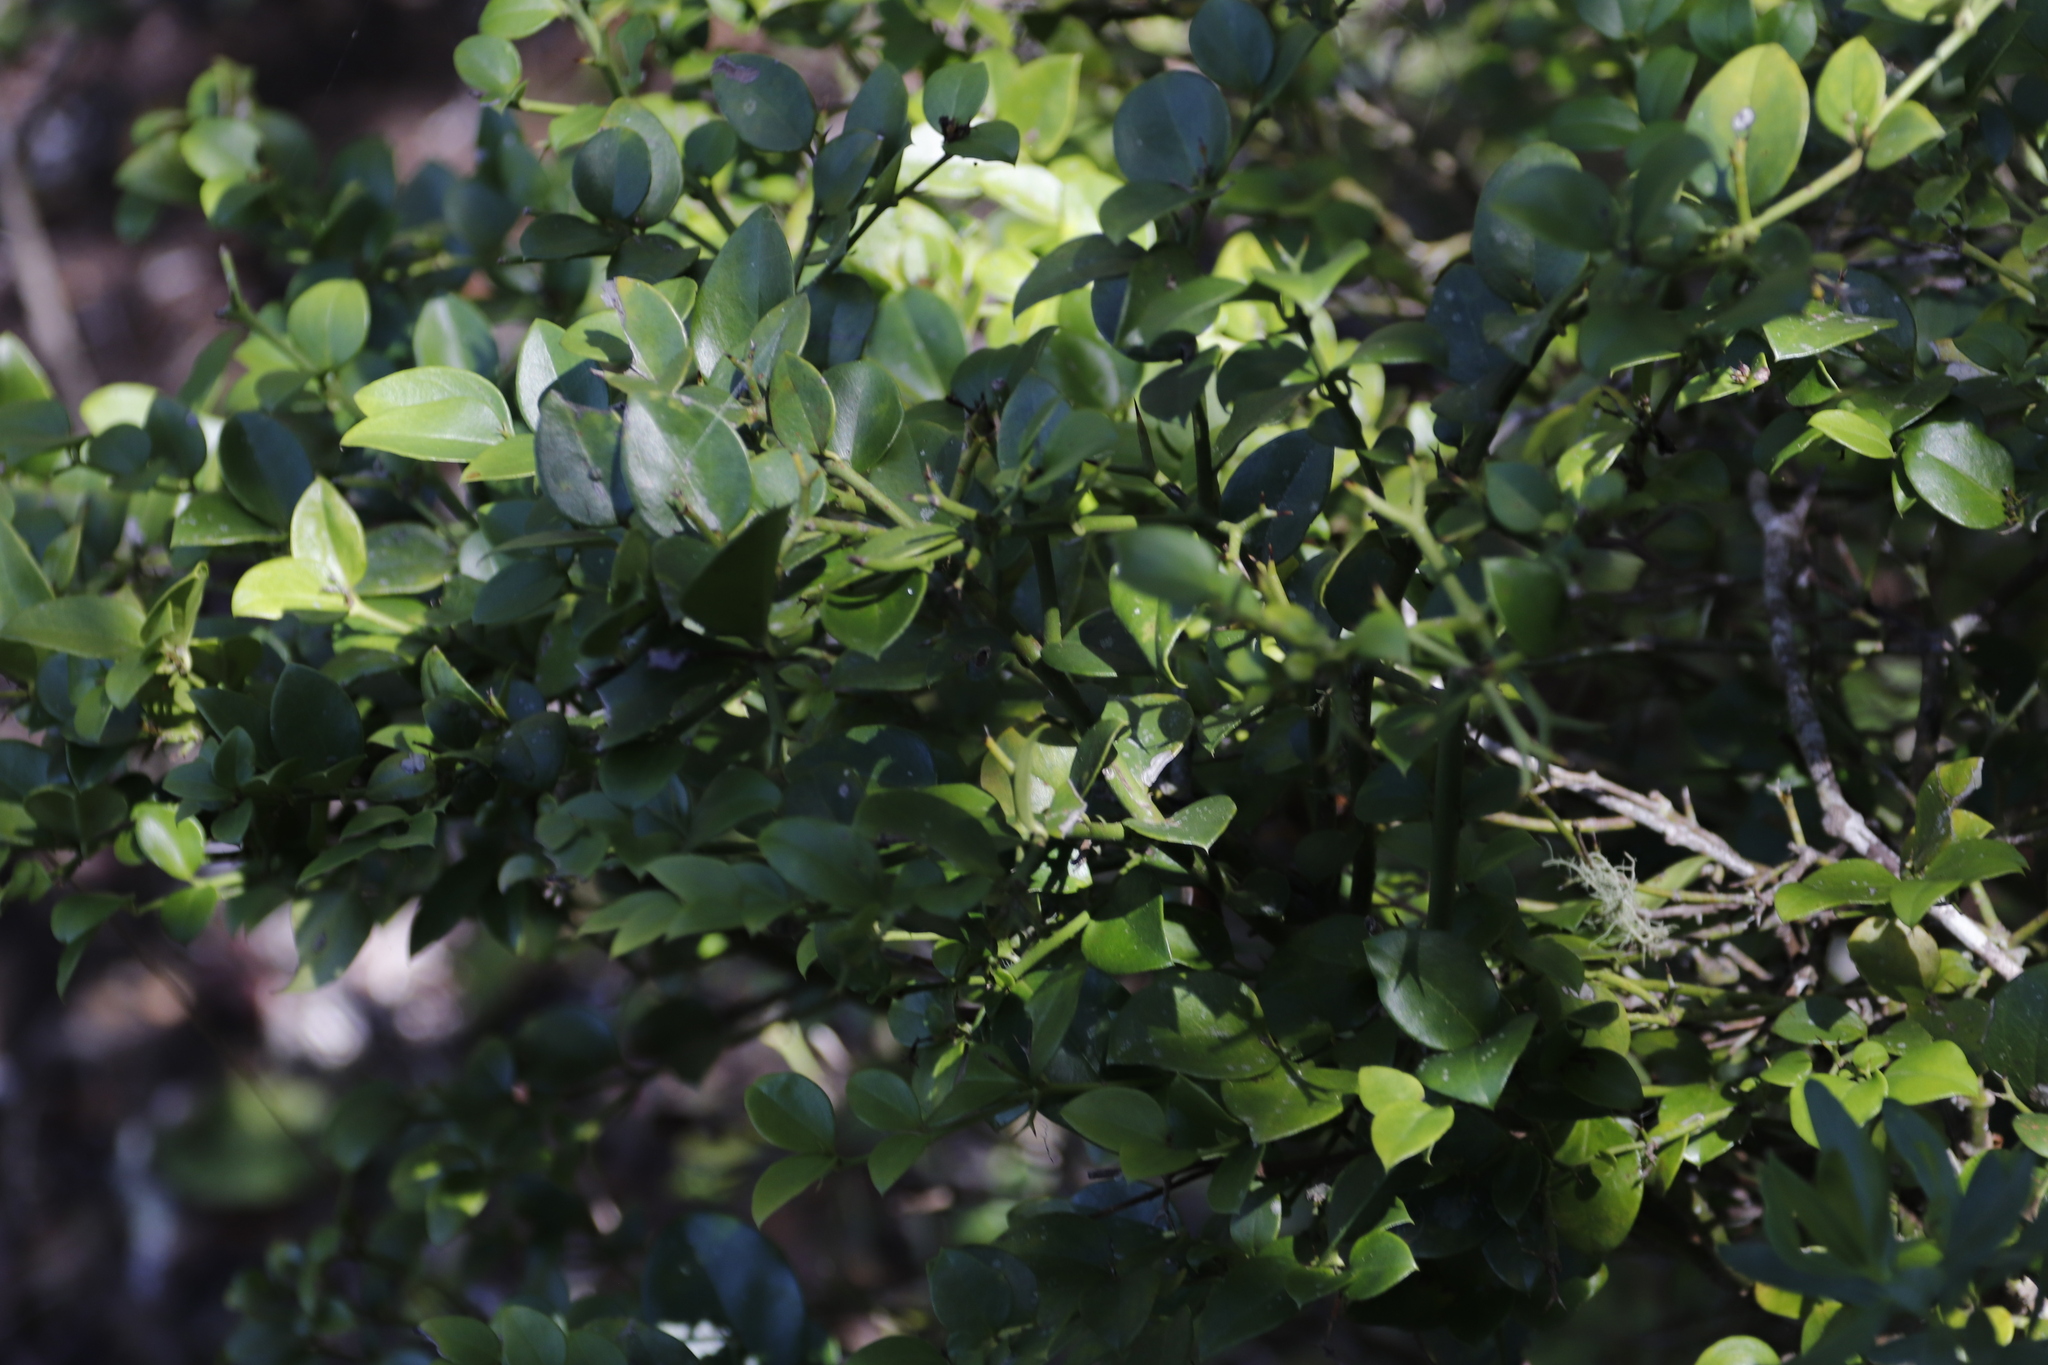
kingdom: Plantae
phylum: Tracheophyta
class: Magnoliopsida
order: Gentianales
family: Apocynaceae
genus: Carissa
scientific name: Carissa bispinosa
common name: Forest num-num
